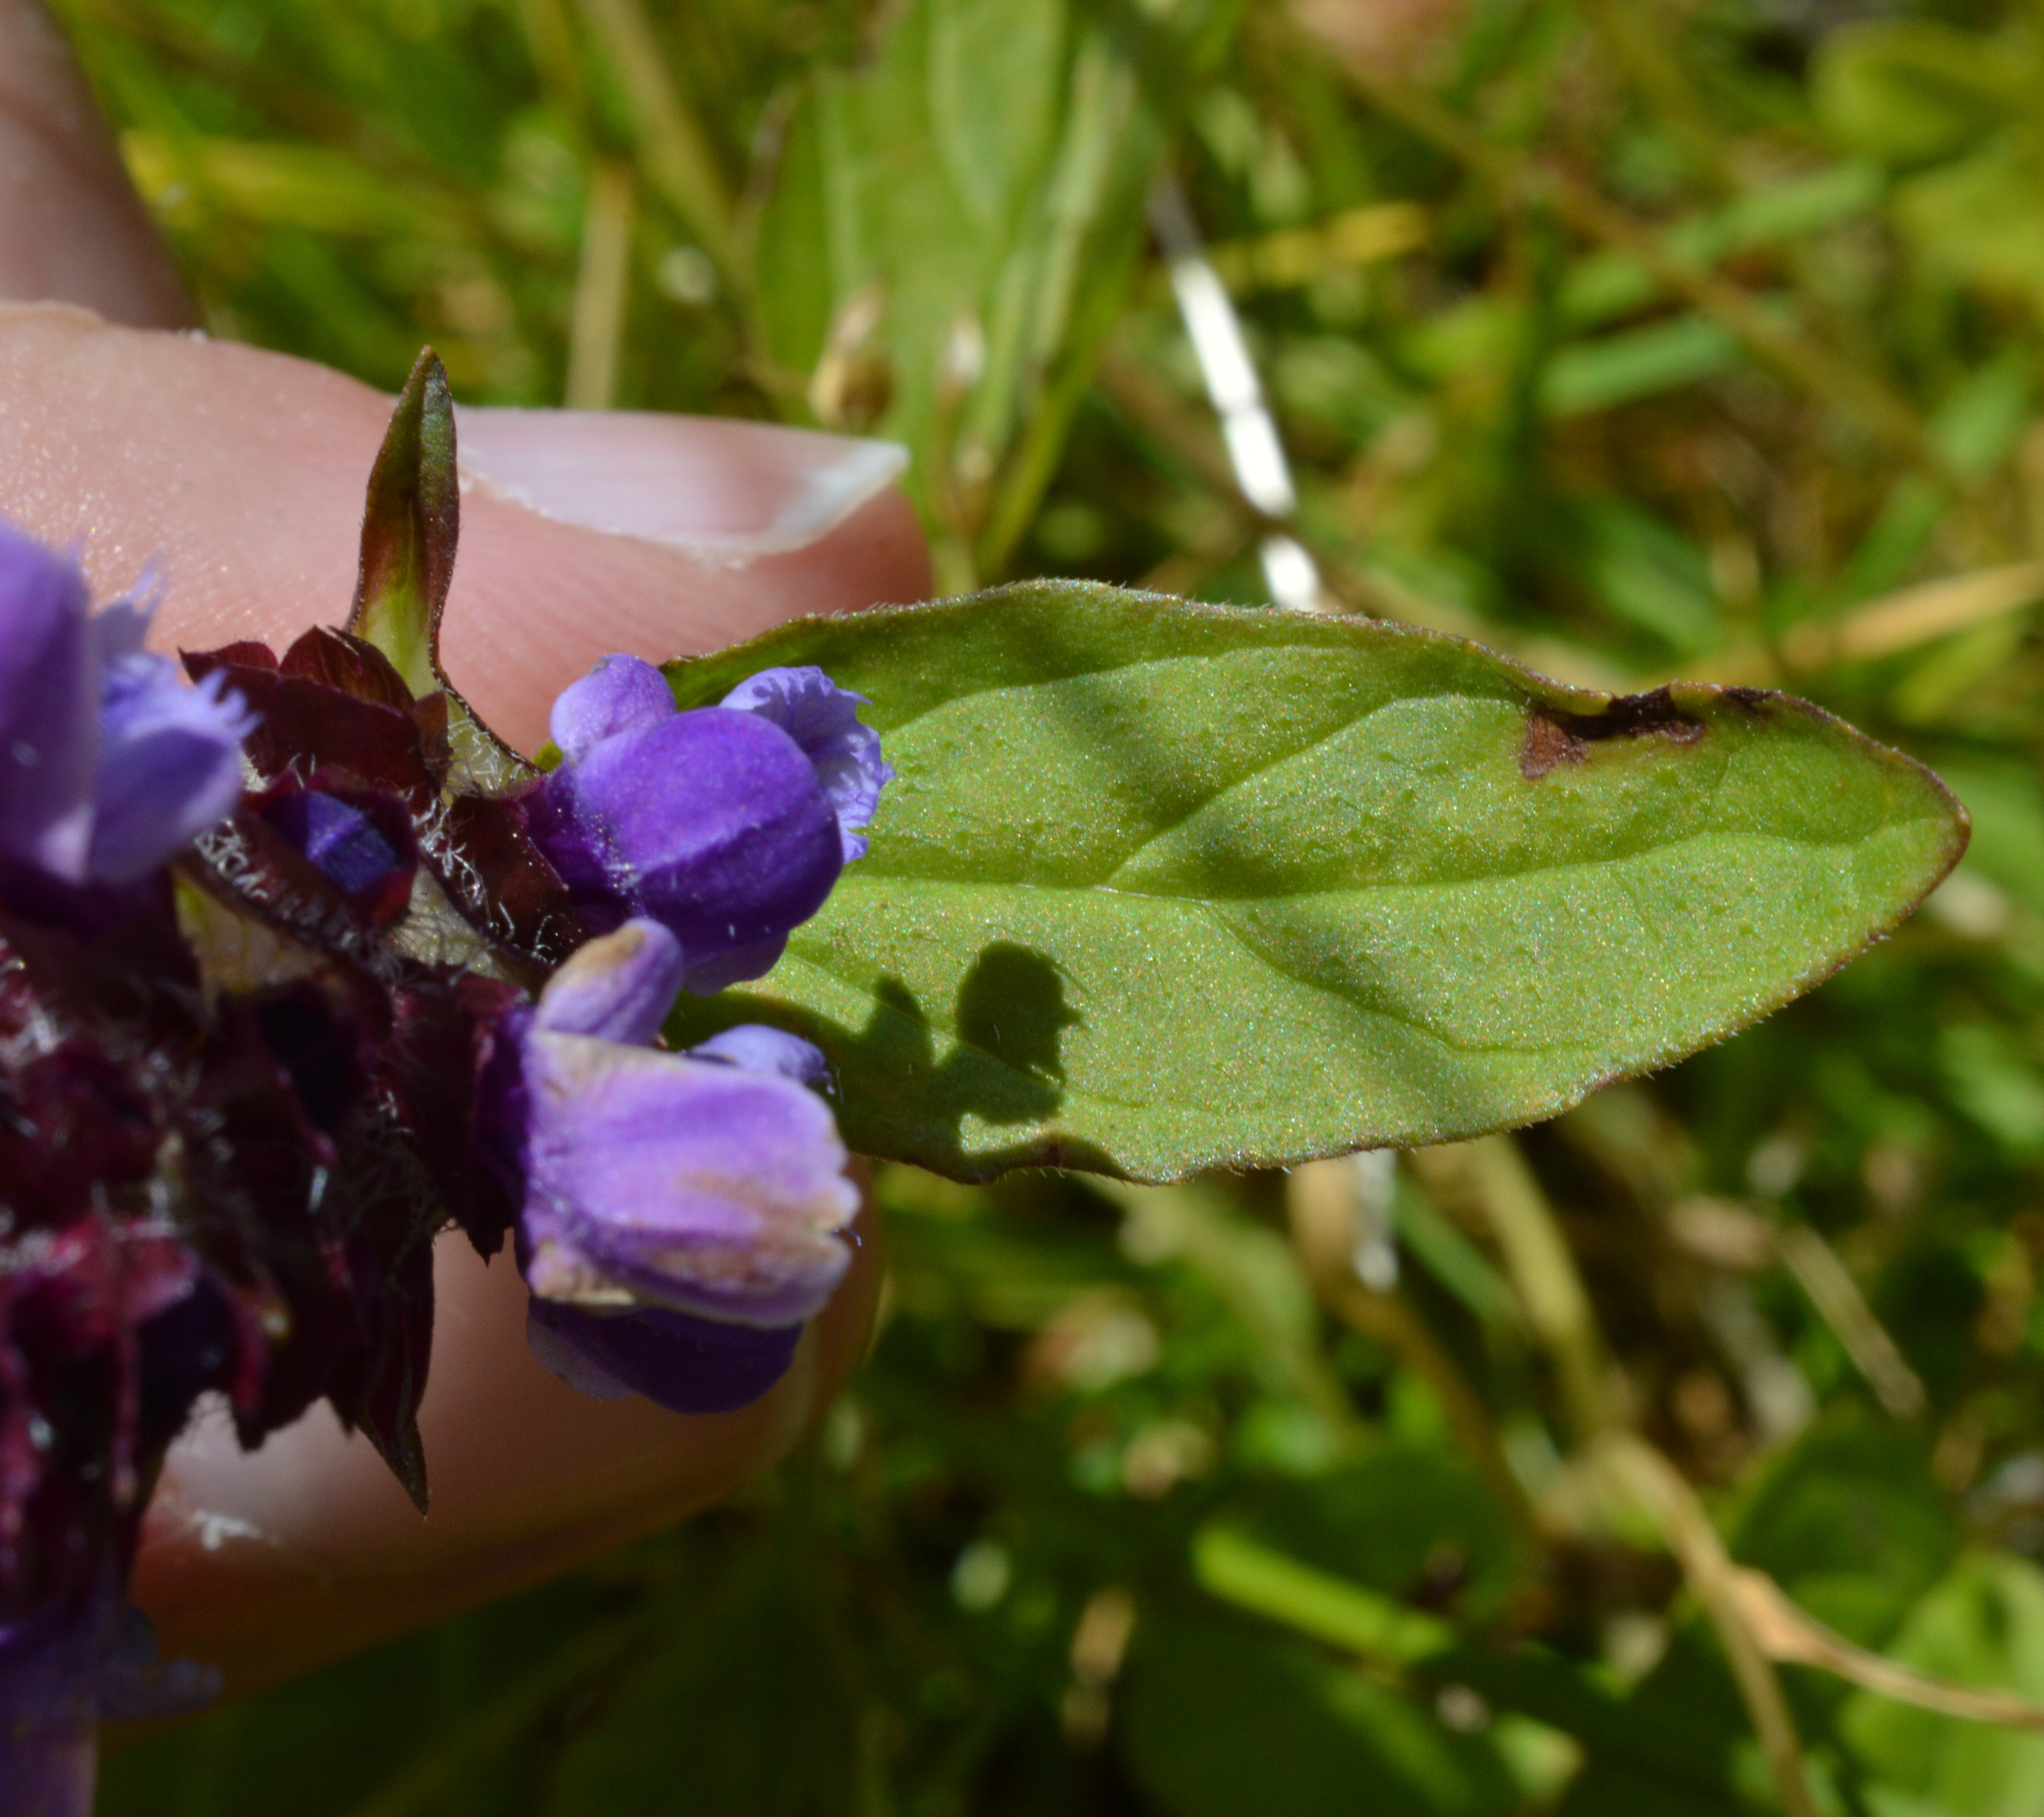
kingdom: Plantae
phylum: Tracheophyta
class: Magnoliopsida
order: Lamiales
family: Lamiaceae
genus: Prunella
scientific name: Prunella vulgaris
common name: Heal-all
